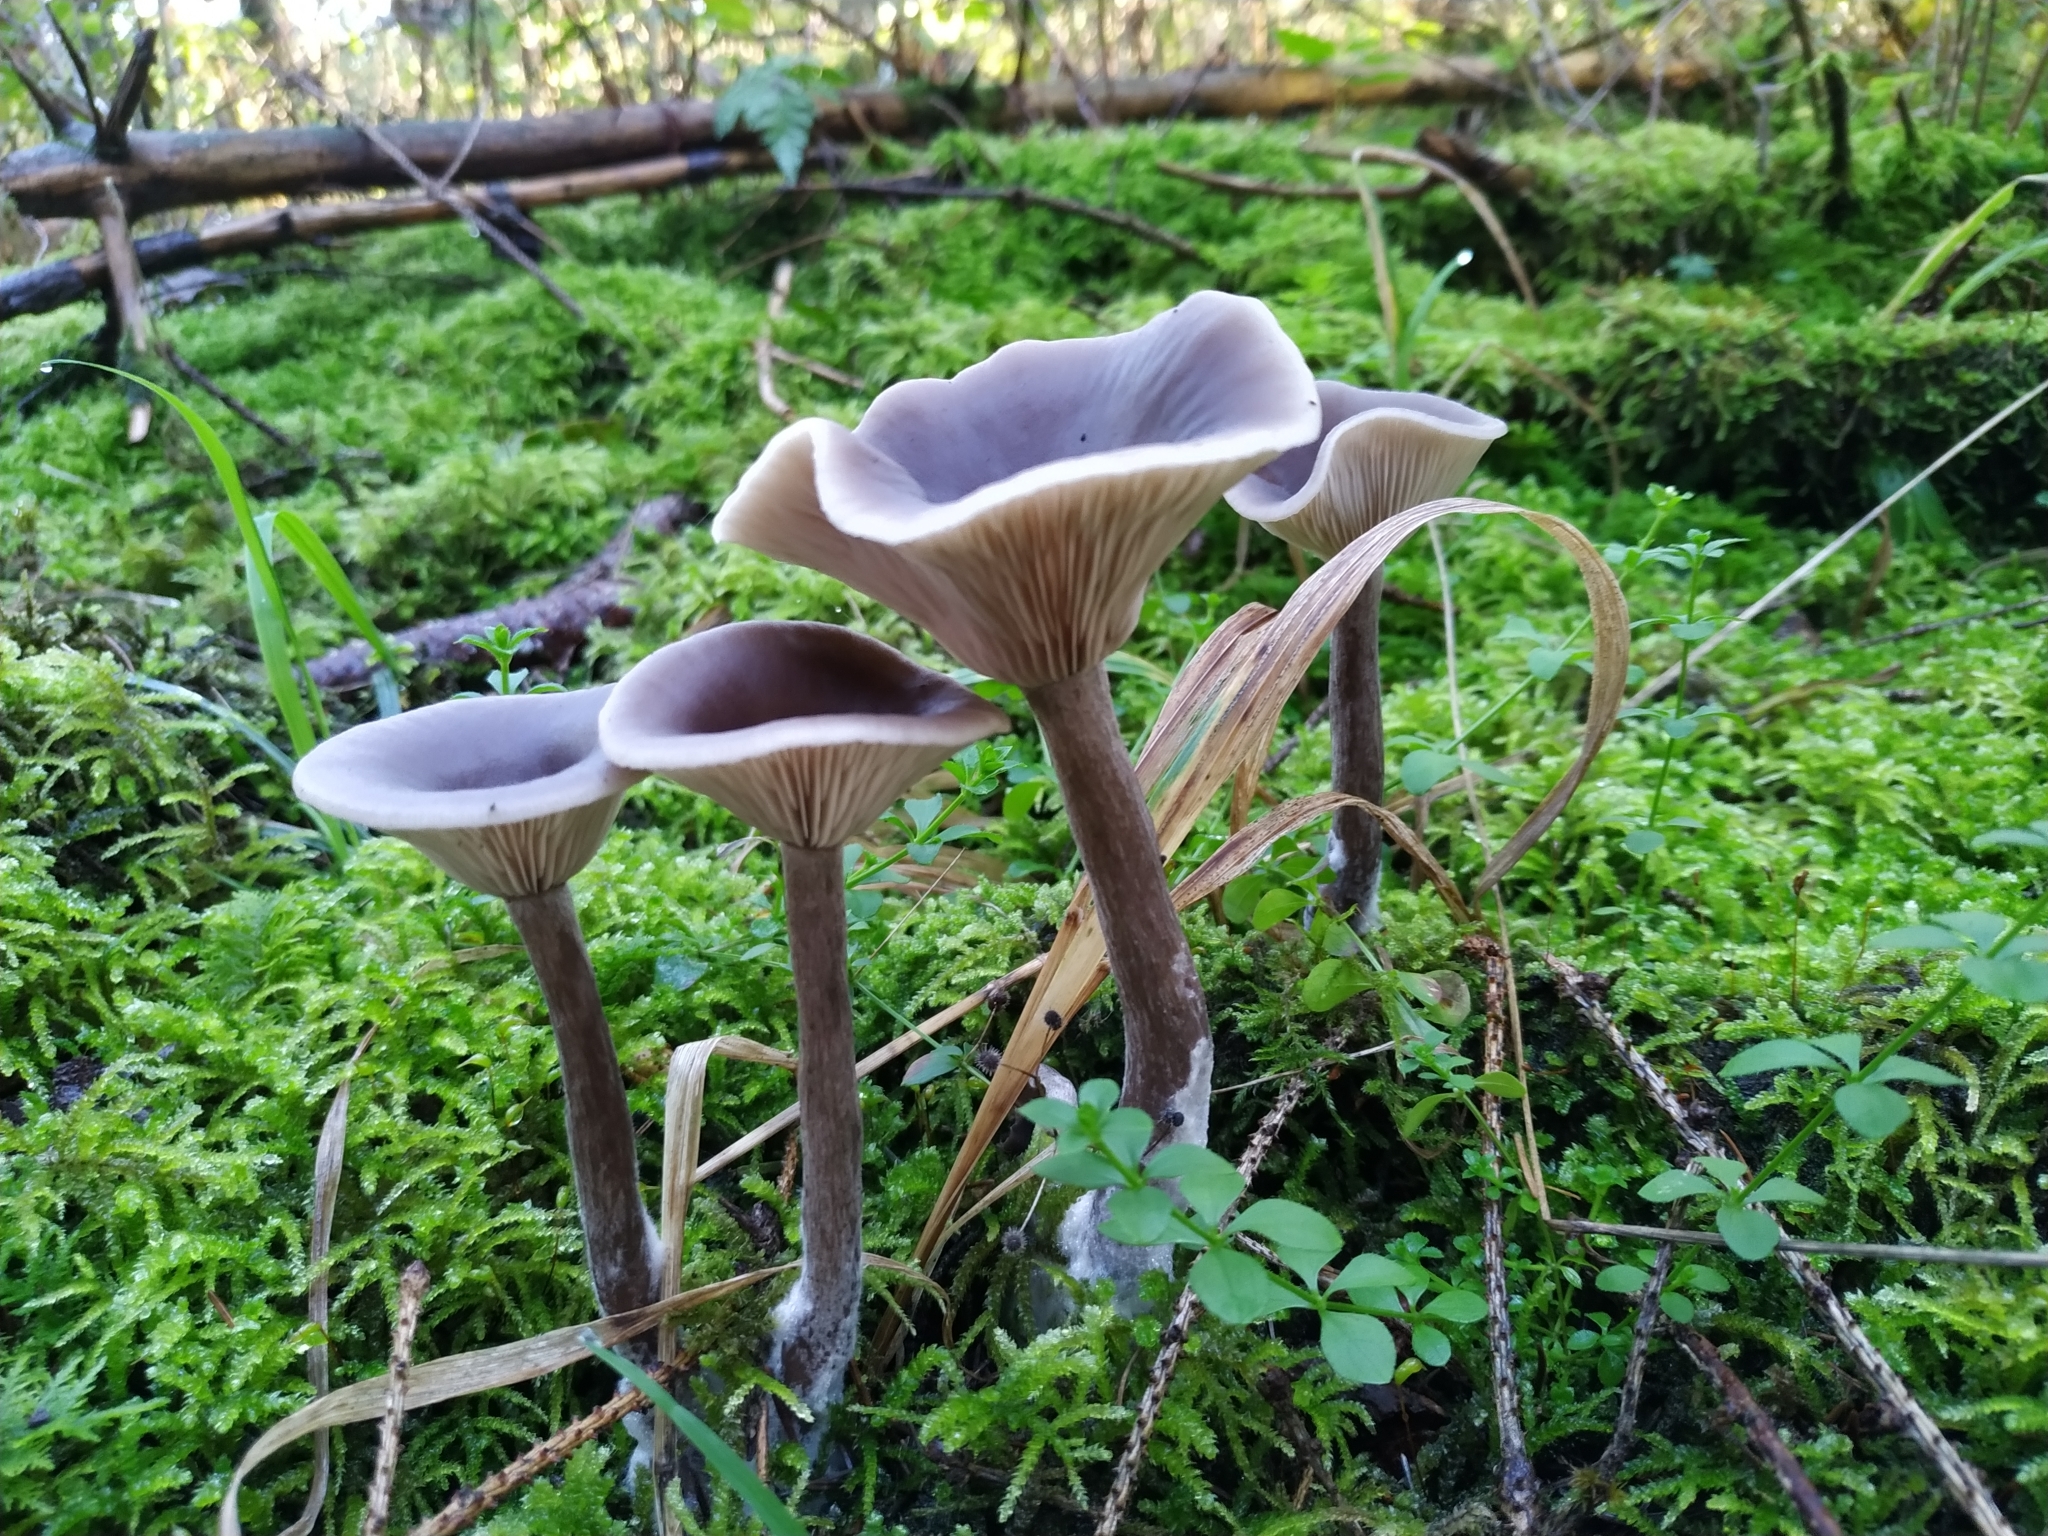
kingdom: Fungi
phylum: Basidiomycota
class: Agaricomycetes
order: Agaricales
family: Pseudoclitocybaceae
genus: Pseudoclitocybe
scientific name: Pseudoclitocybe cyathiformis
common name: Goblet
